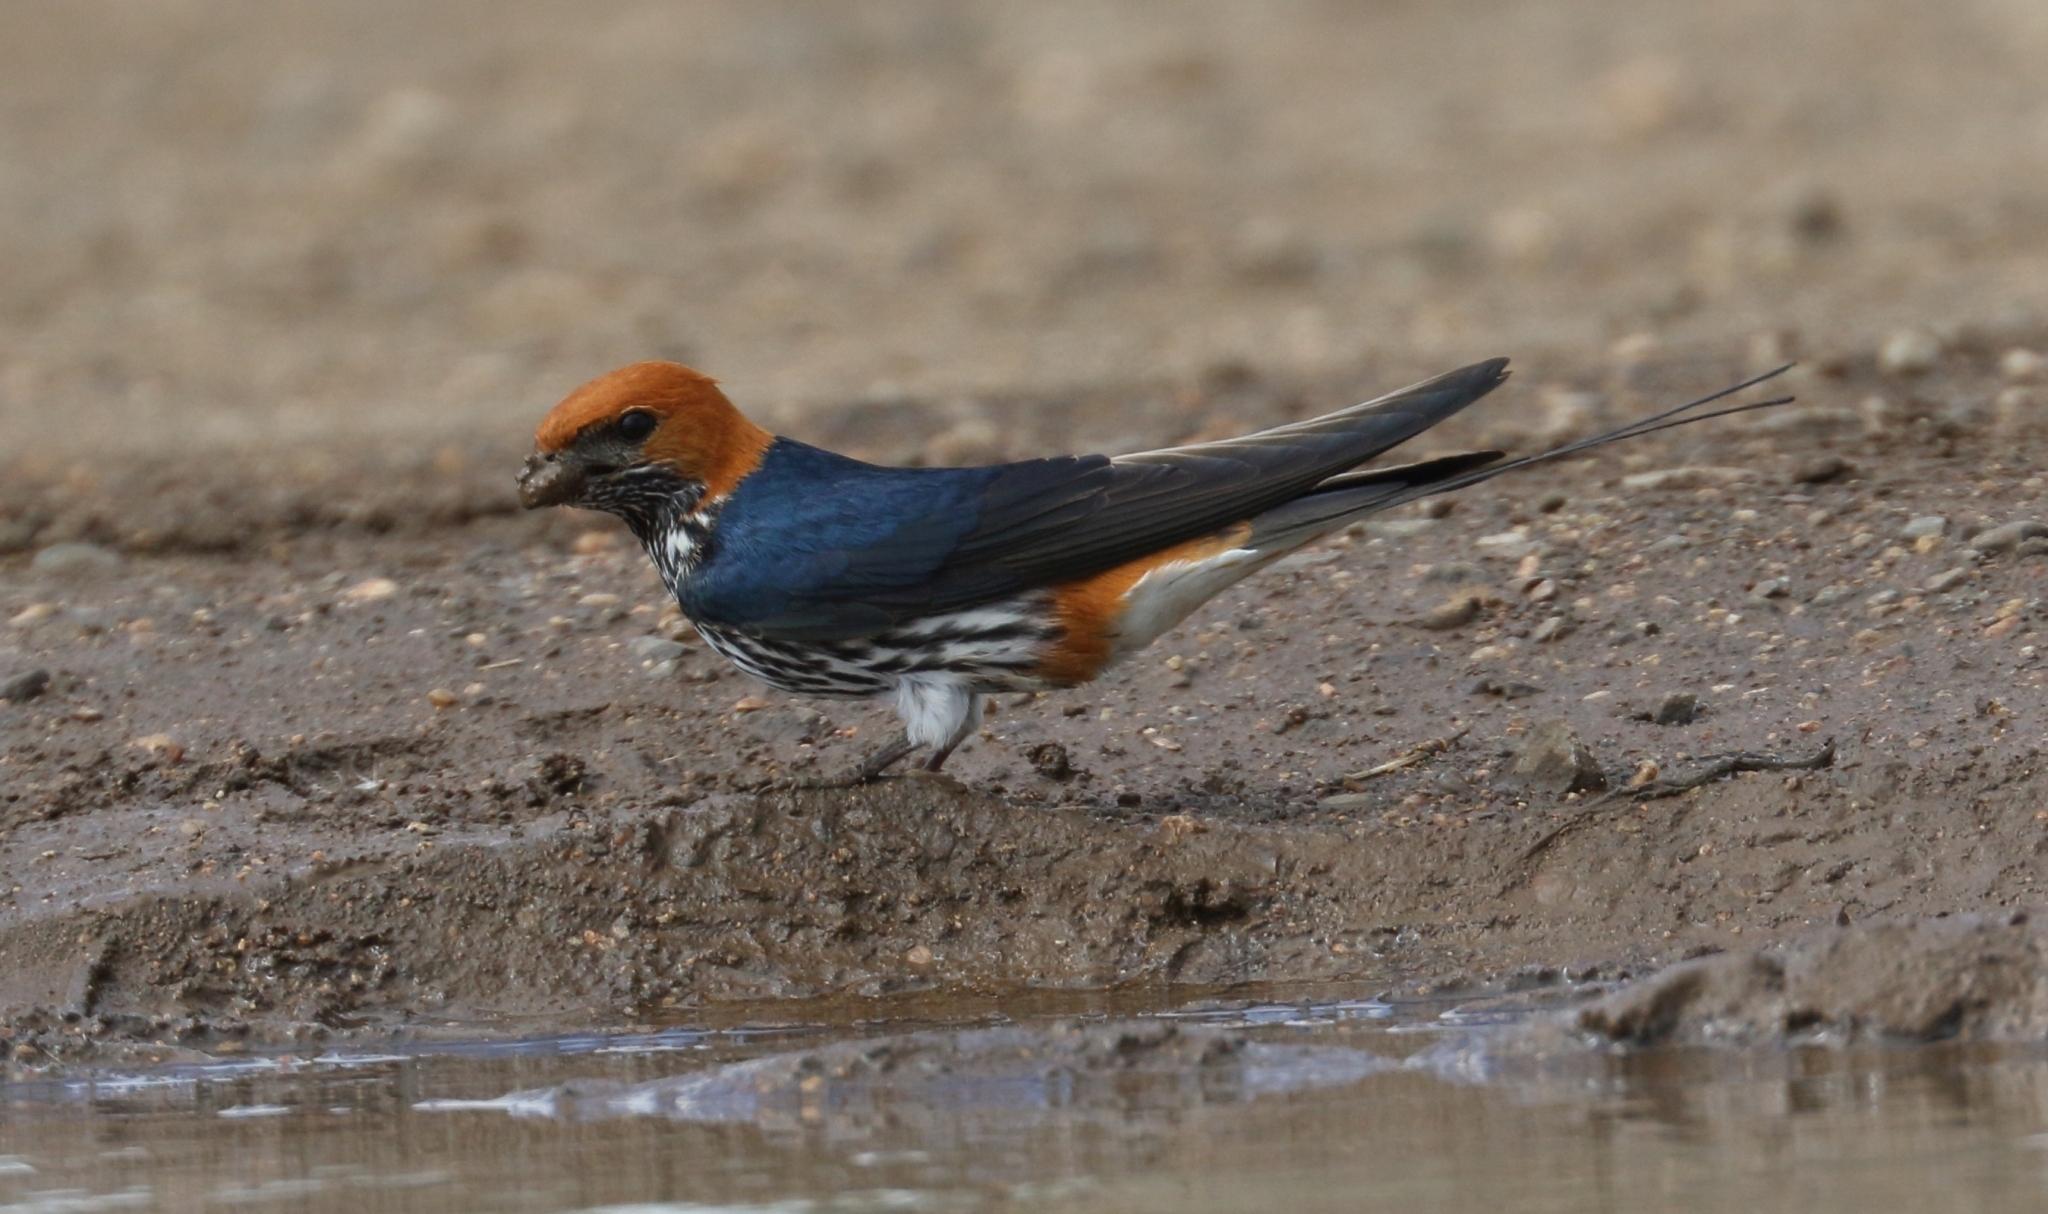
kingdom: Animalia
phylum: Chordata
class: Aves
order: Passeriformes
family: Hirundinidae
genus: Cecropis
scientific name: Cecropis abyssinica
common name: Lesser striped-swallow
